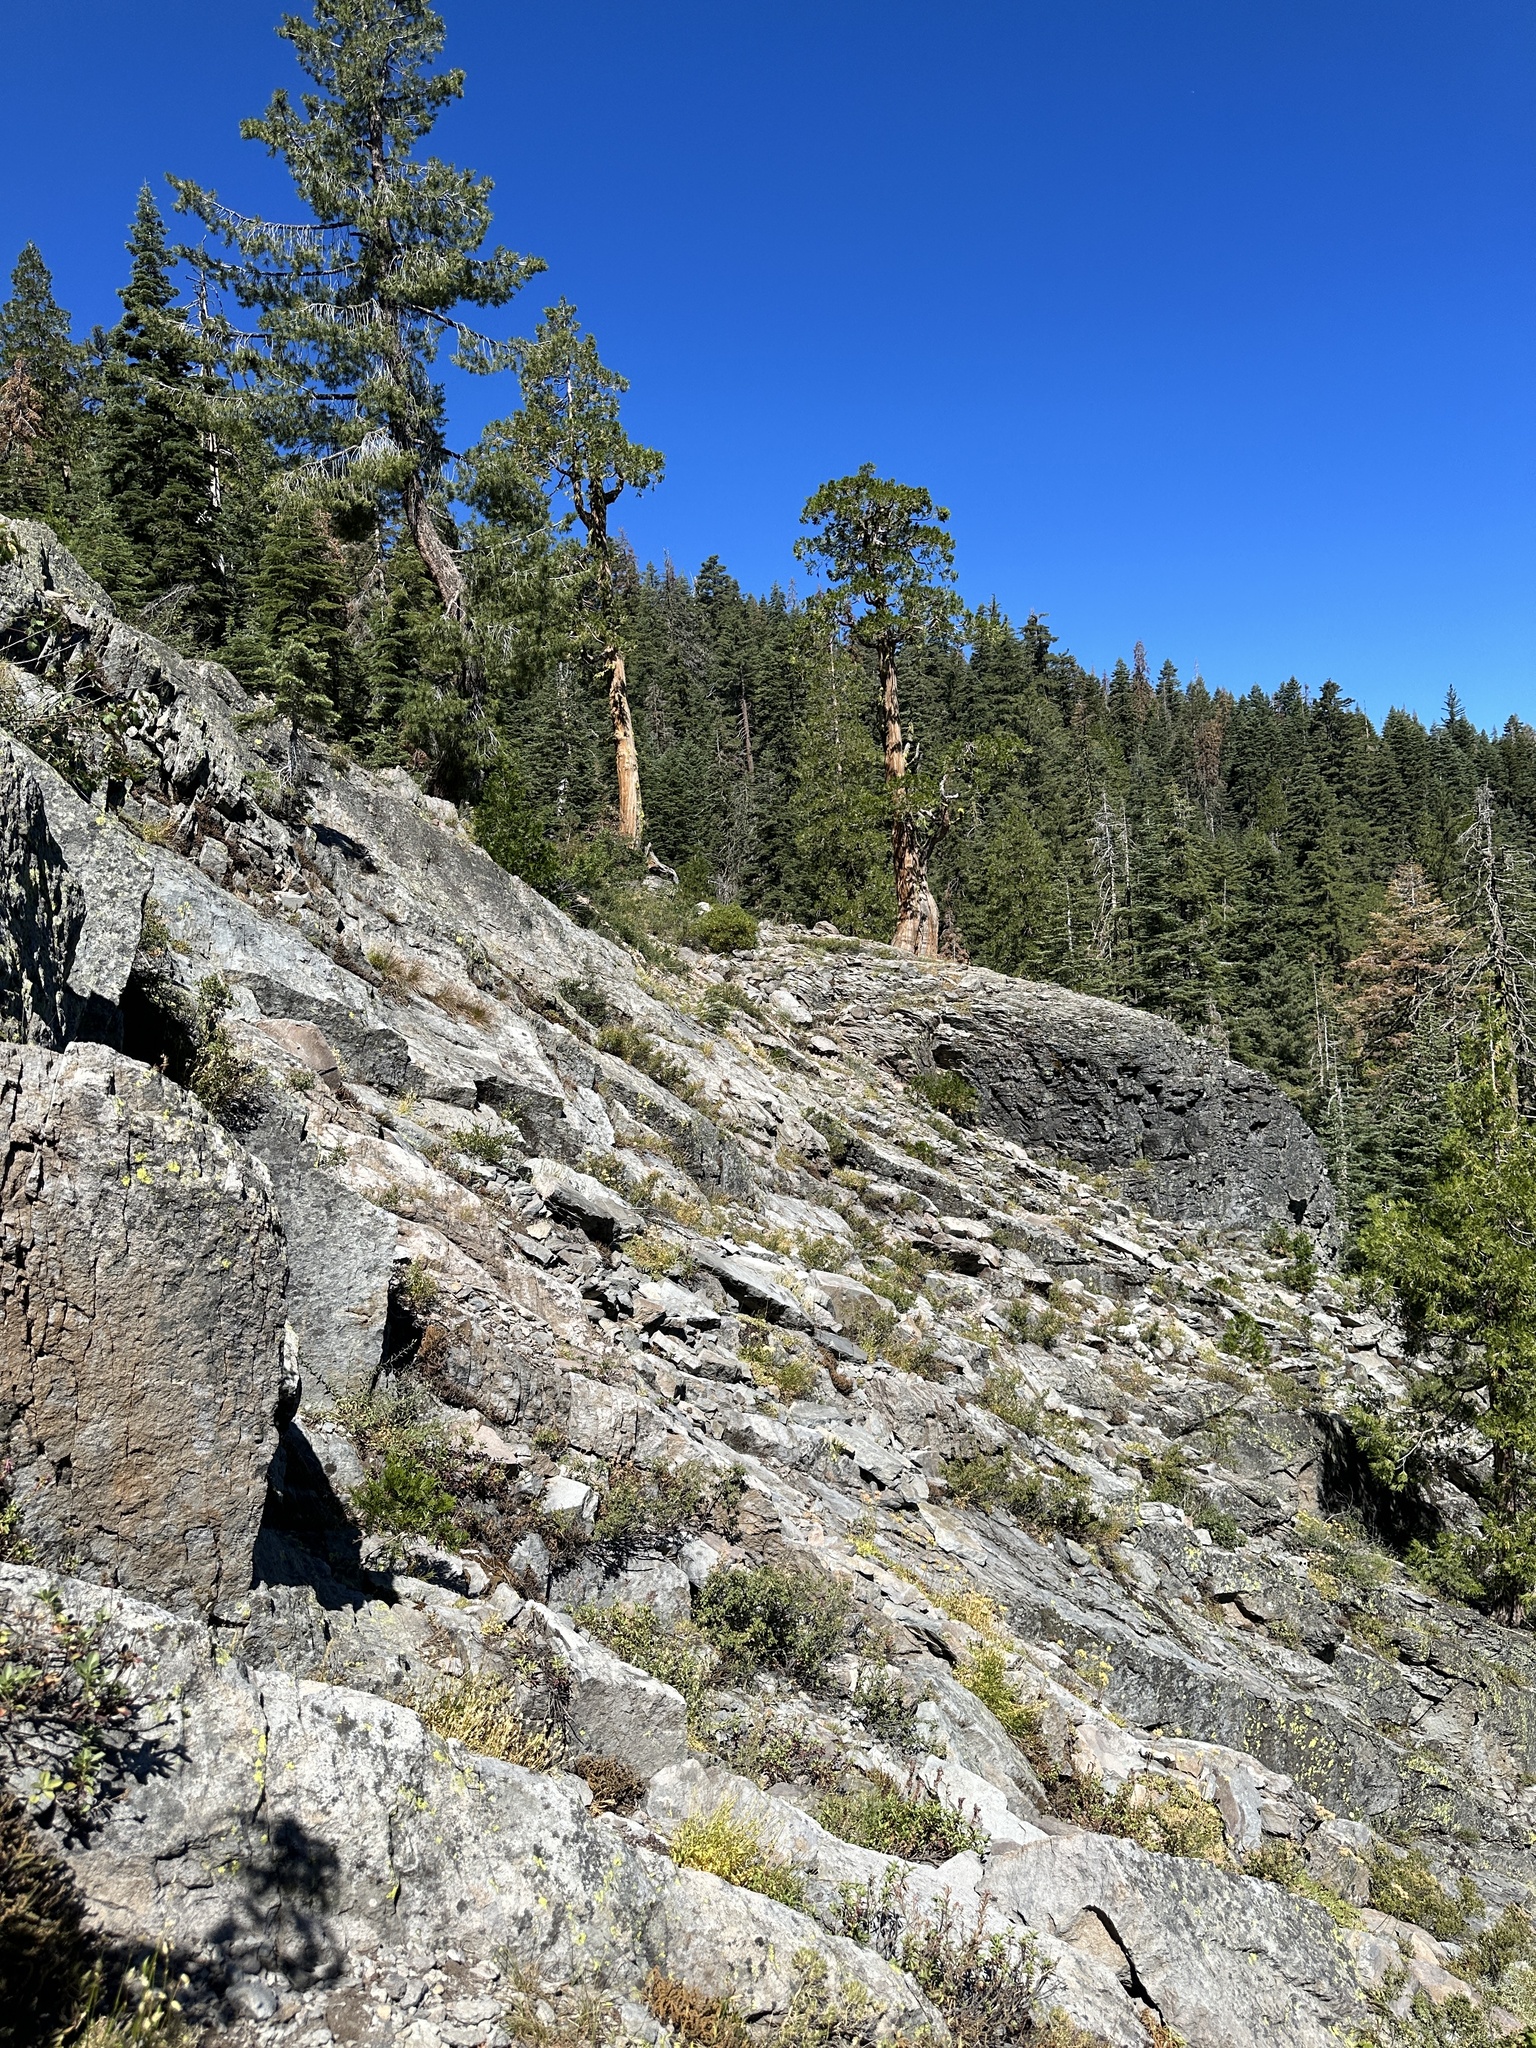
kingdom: Plantae
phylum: Tracheophyta
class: Liliopsida
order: Poales
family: Poaceae
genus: Eriocoma
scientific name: Eriocoma occidentalis
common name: Stiff needlegrass
